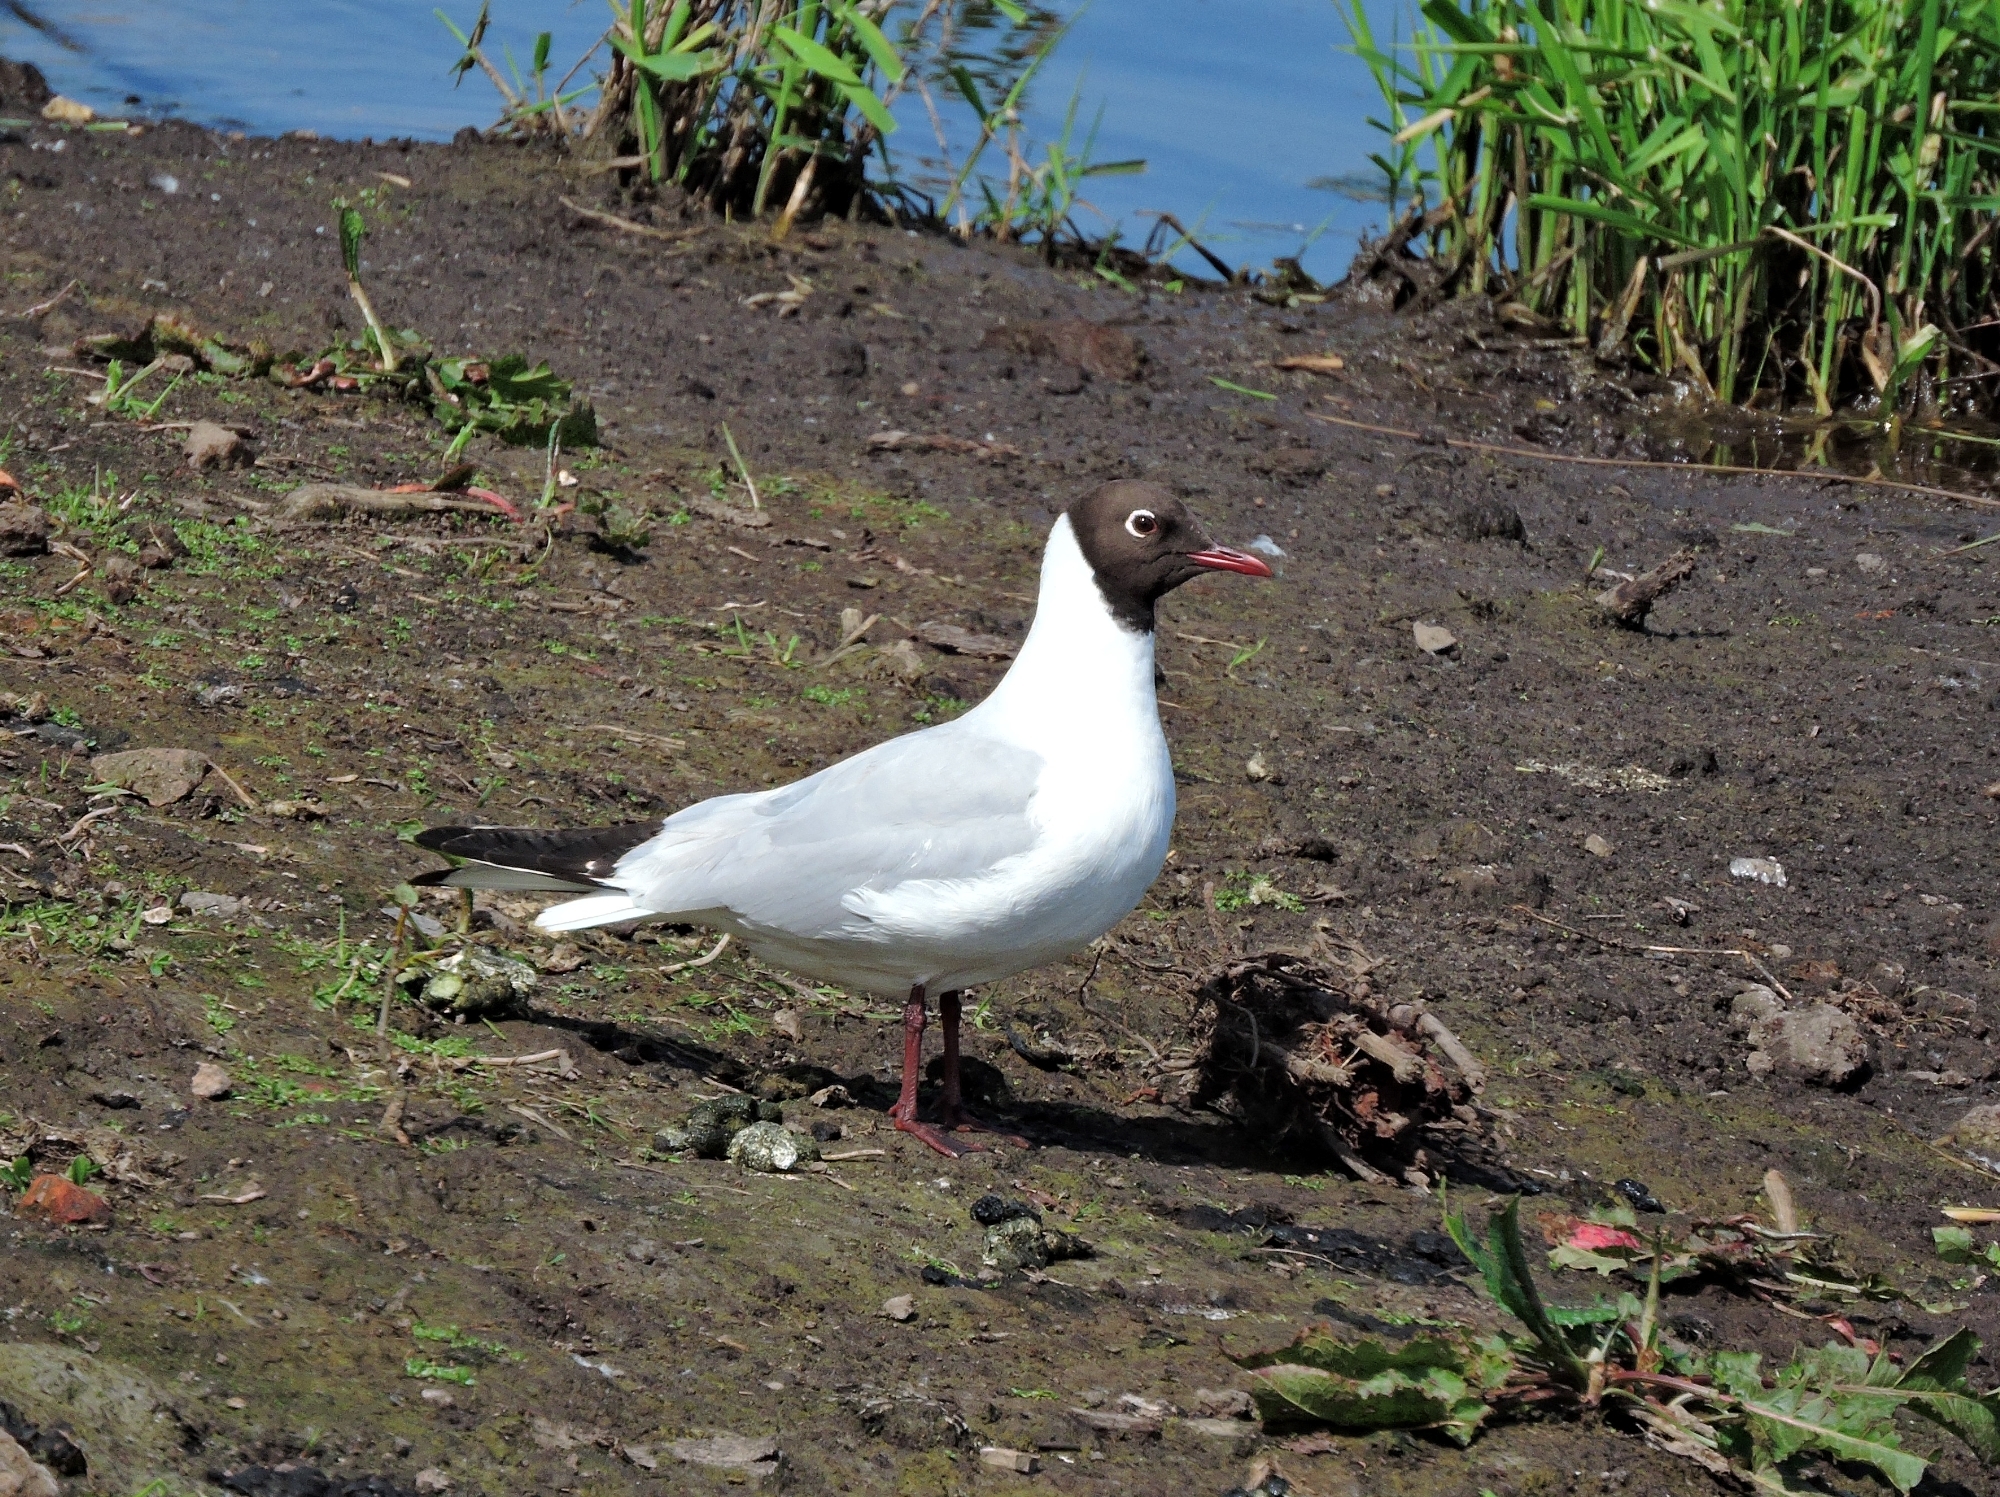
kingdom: Animalia
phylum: Chordata
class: Aves
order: Charadriiformes
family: Laridae
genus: Chroicocephalus
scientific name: Chroicocephalus ridibundus
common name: Black-headed gull
